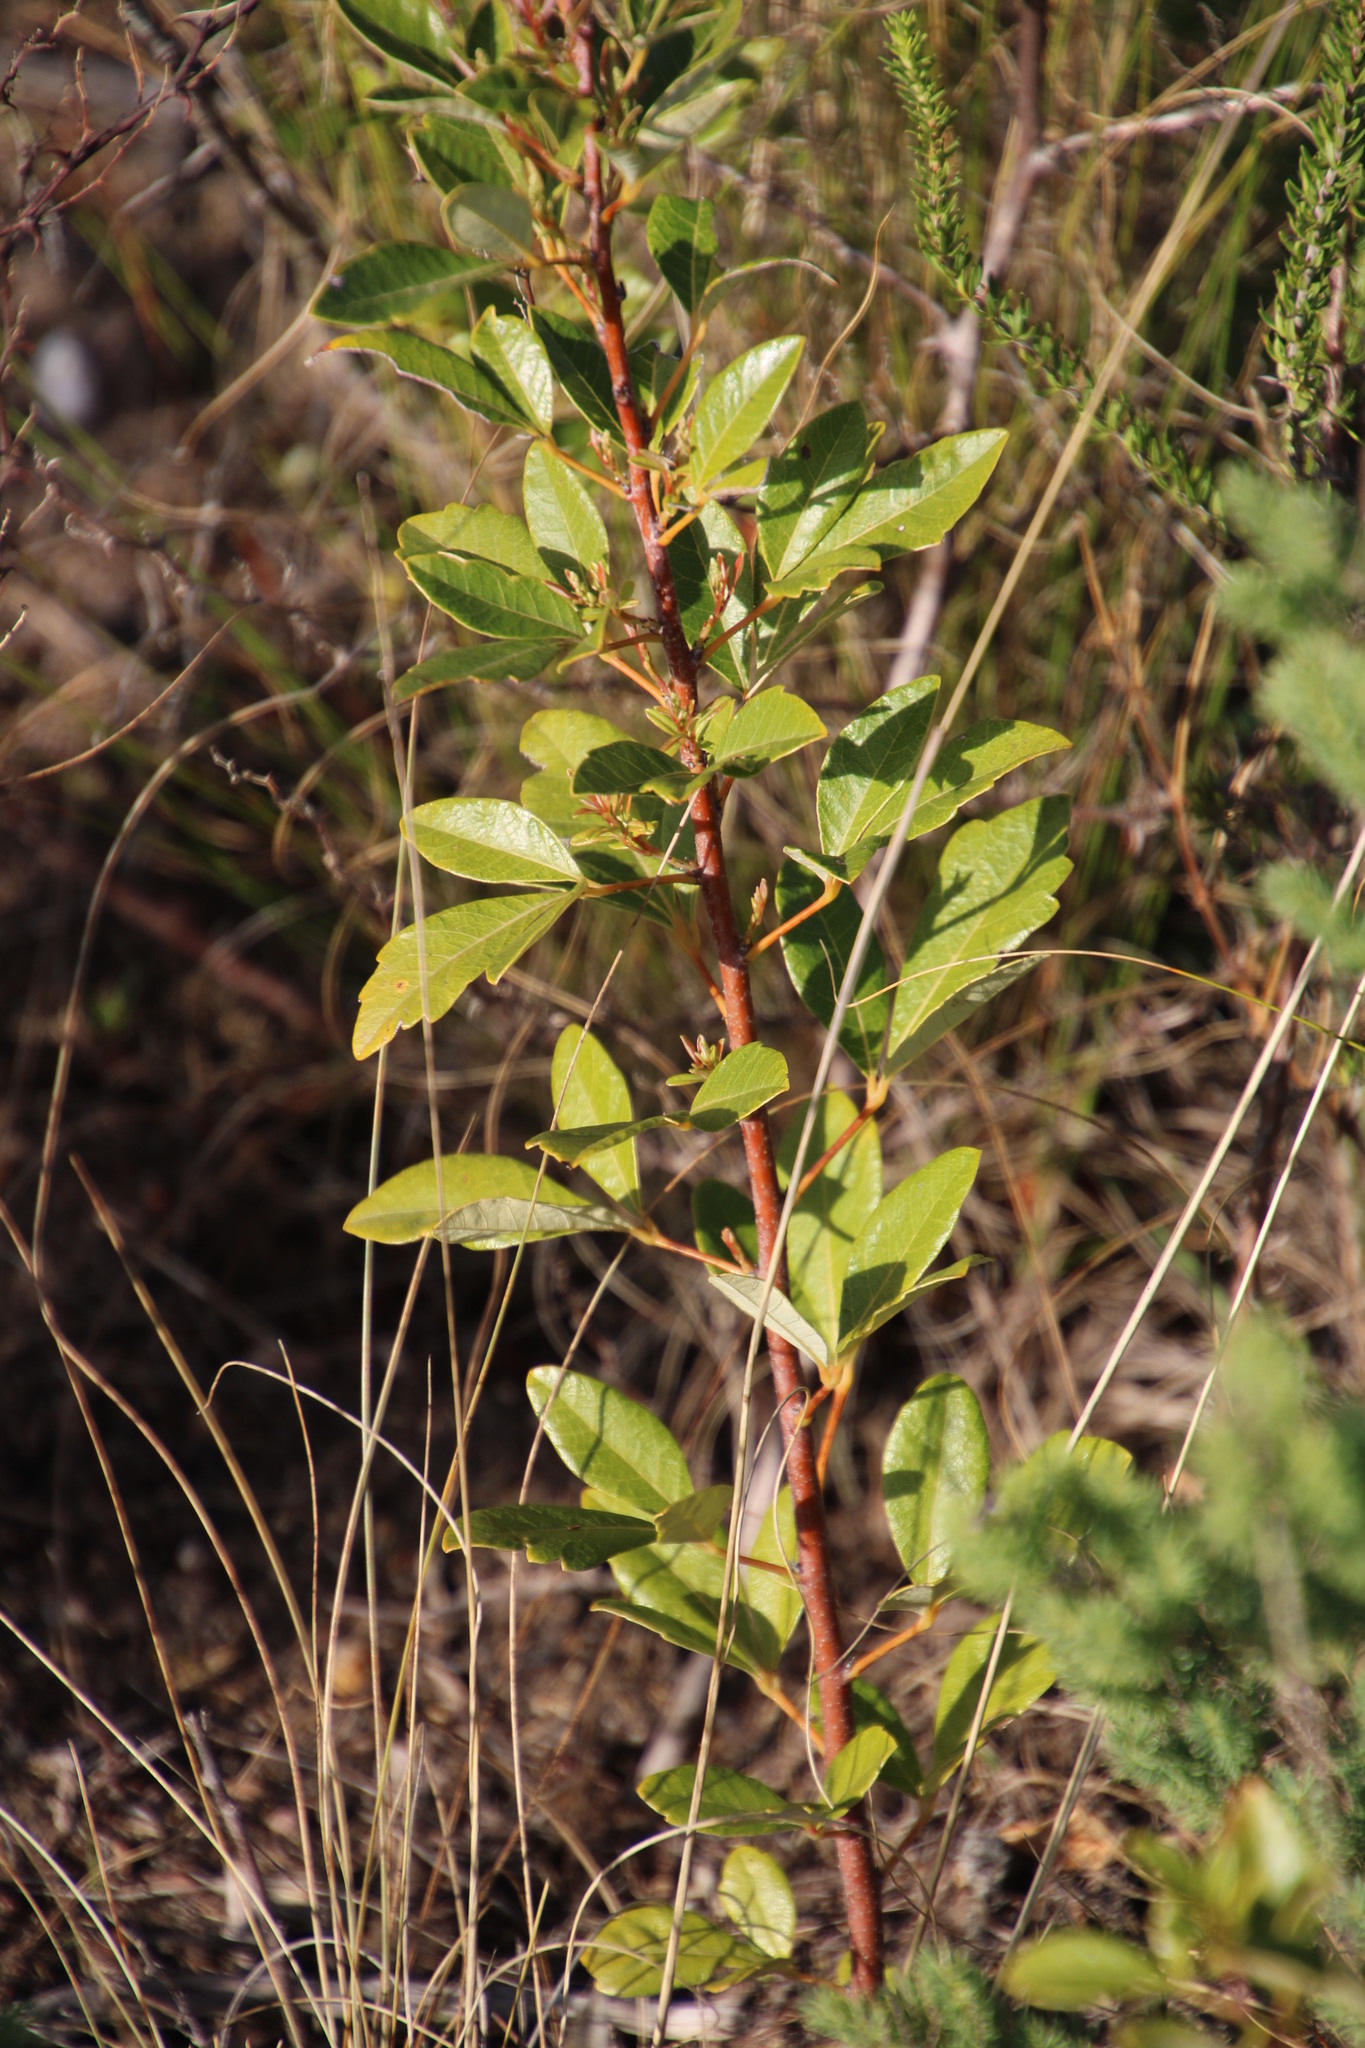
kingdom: Plantae
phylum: Tracheophyta
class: Magnoliopsida
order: Sapindales
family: Anacardiaceae
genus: Searsia
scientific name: Searsia tomentosa
